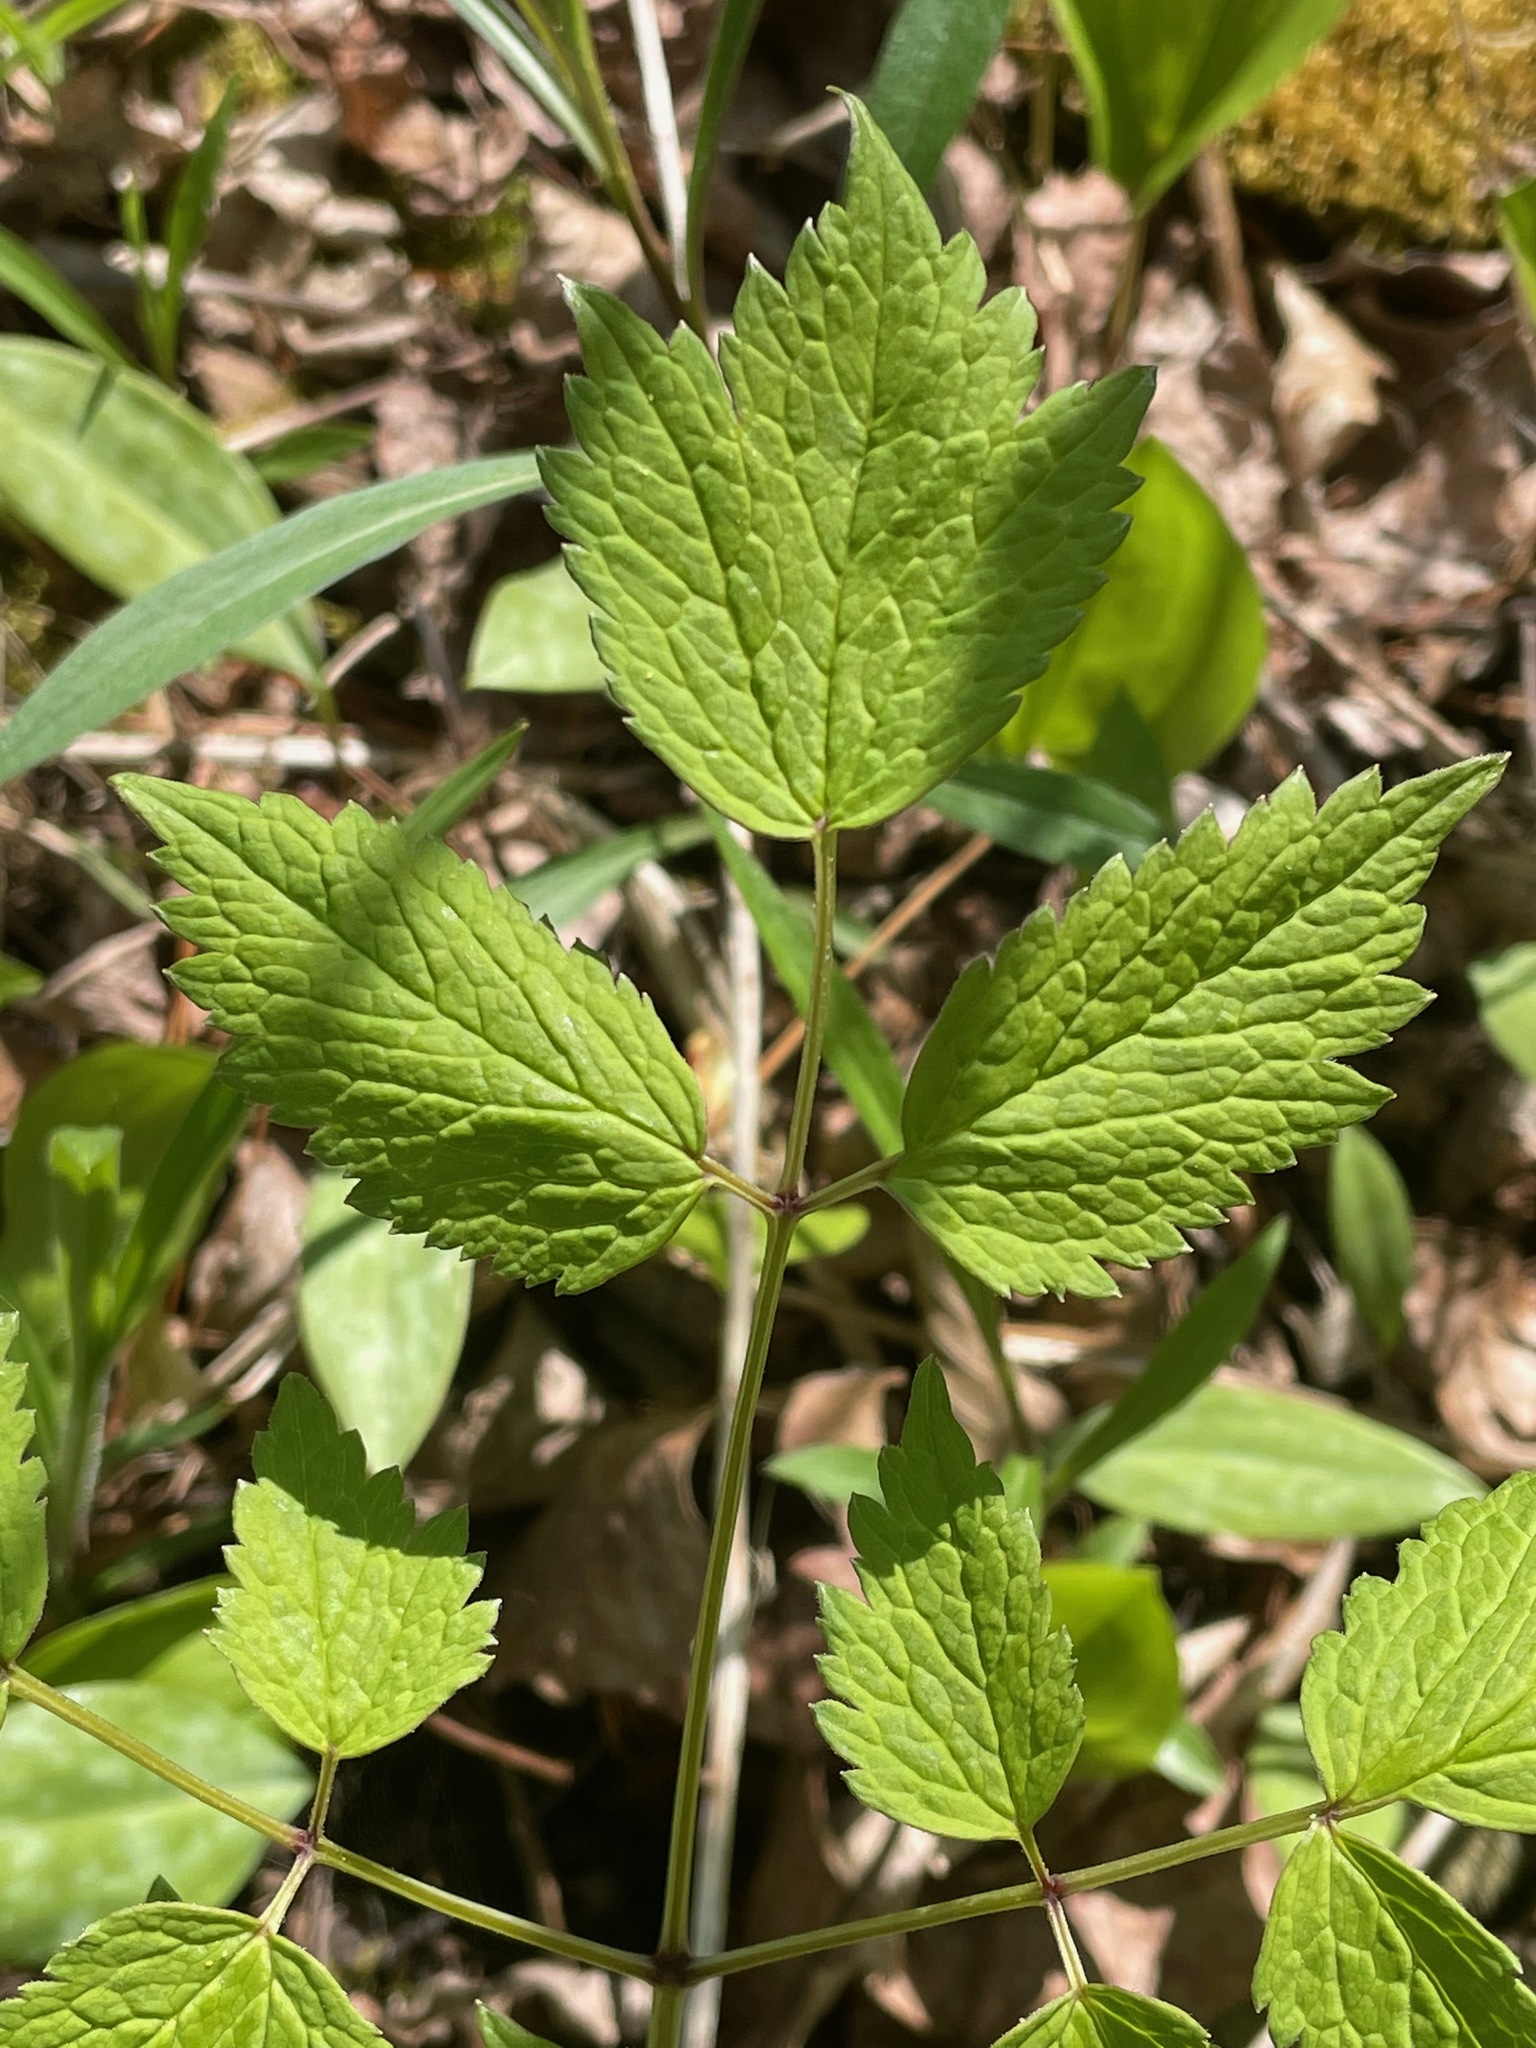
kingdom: Plantae
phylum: Tracheophyta
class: Magnoliopsida
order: Ranunculales
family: Ranunculaceae
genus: Actaea
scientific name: Actaea rubra
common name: Red baneberry
